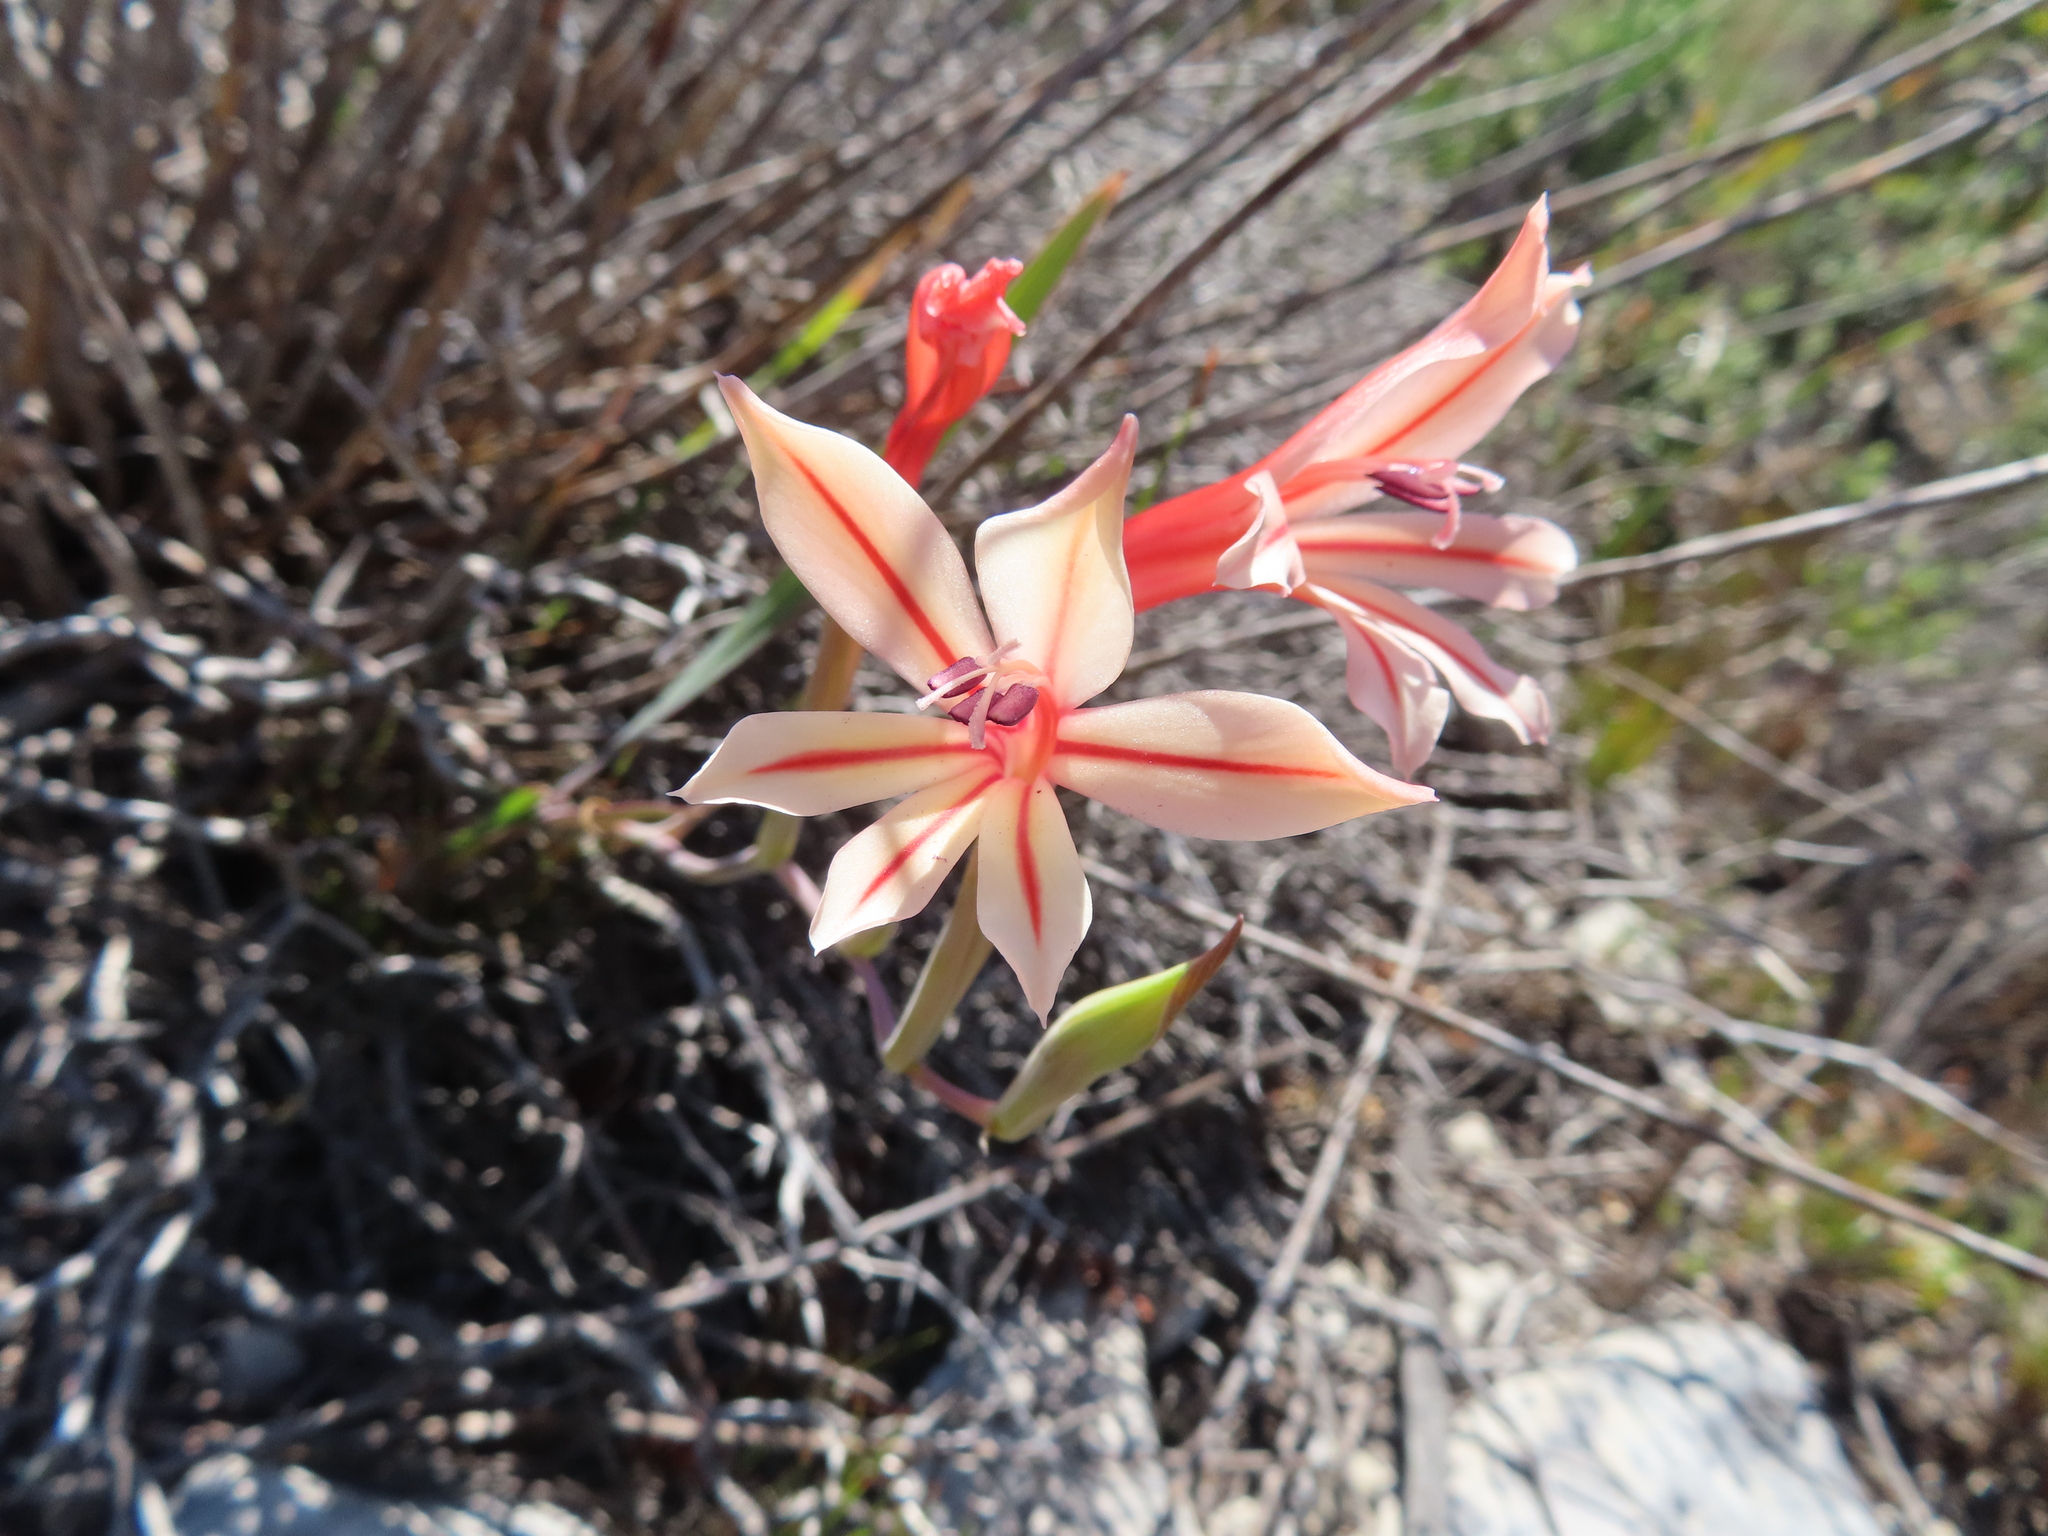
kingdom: Plantae
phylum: Tracheophyta
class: Liliopsida
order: Asparagales
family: Iridaceae
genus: Gladiolus
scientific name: Gladiolus miniatus
